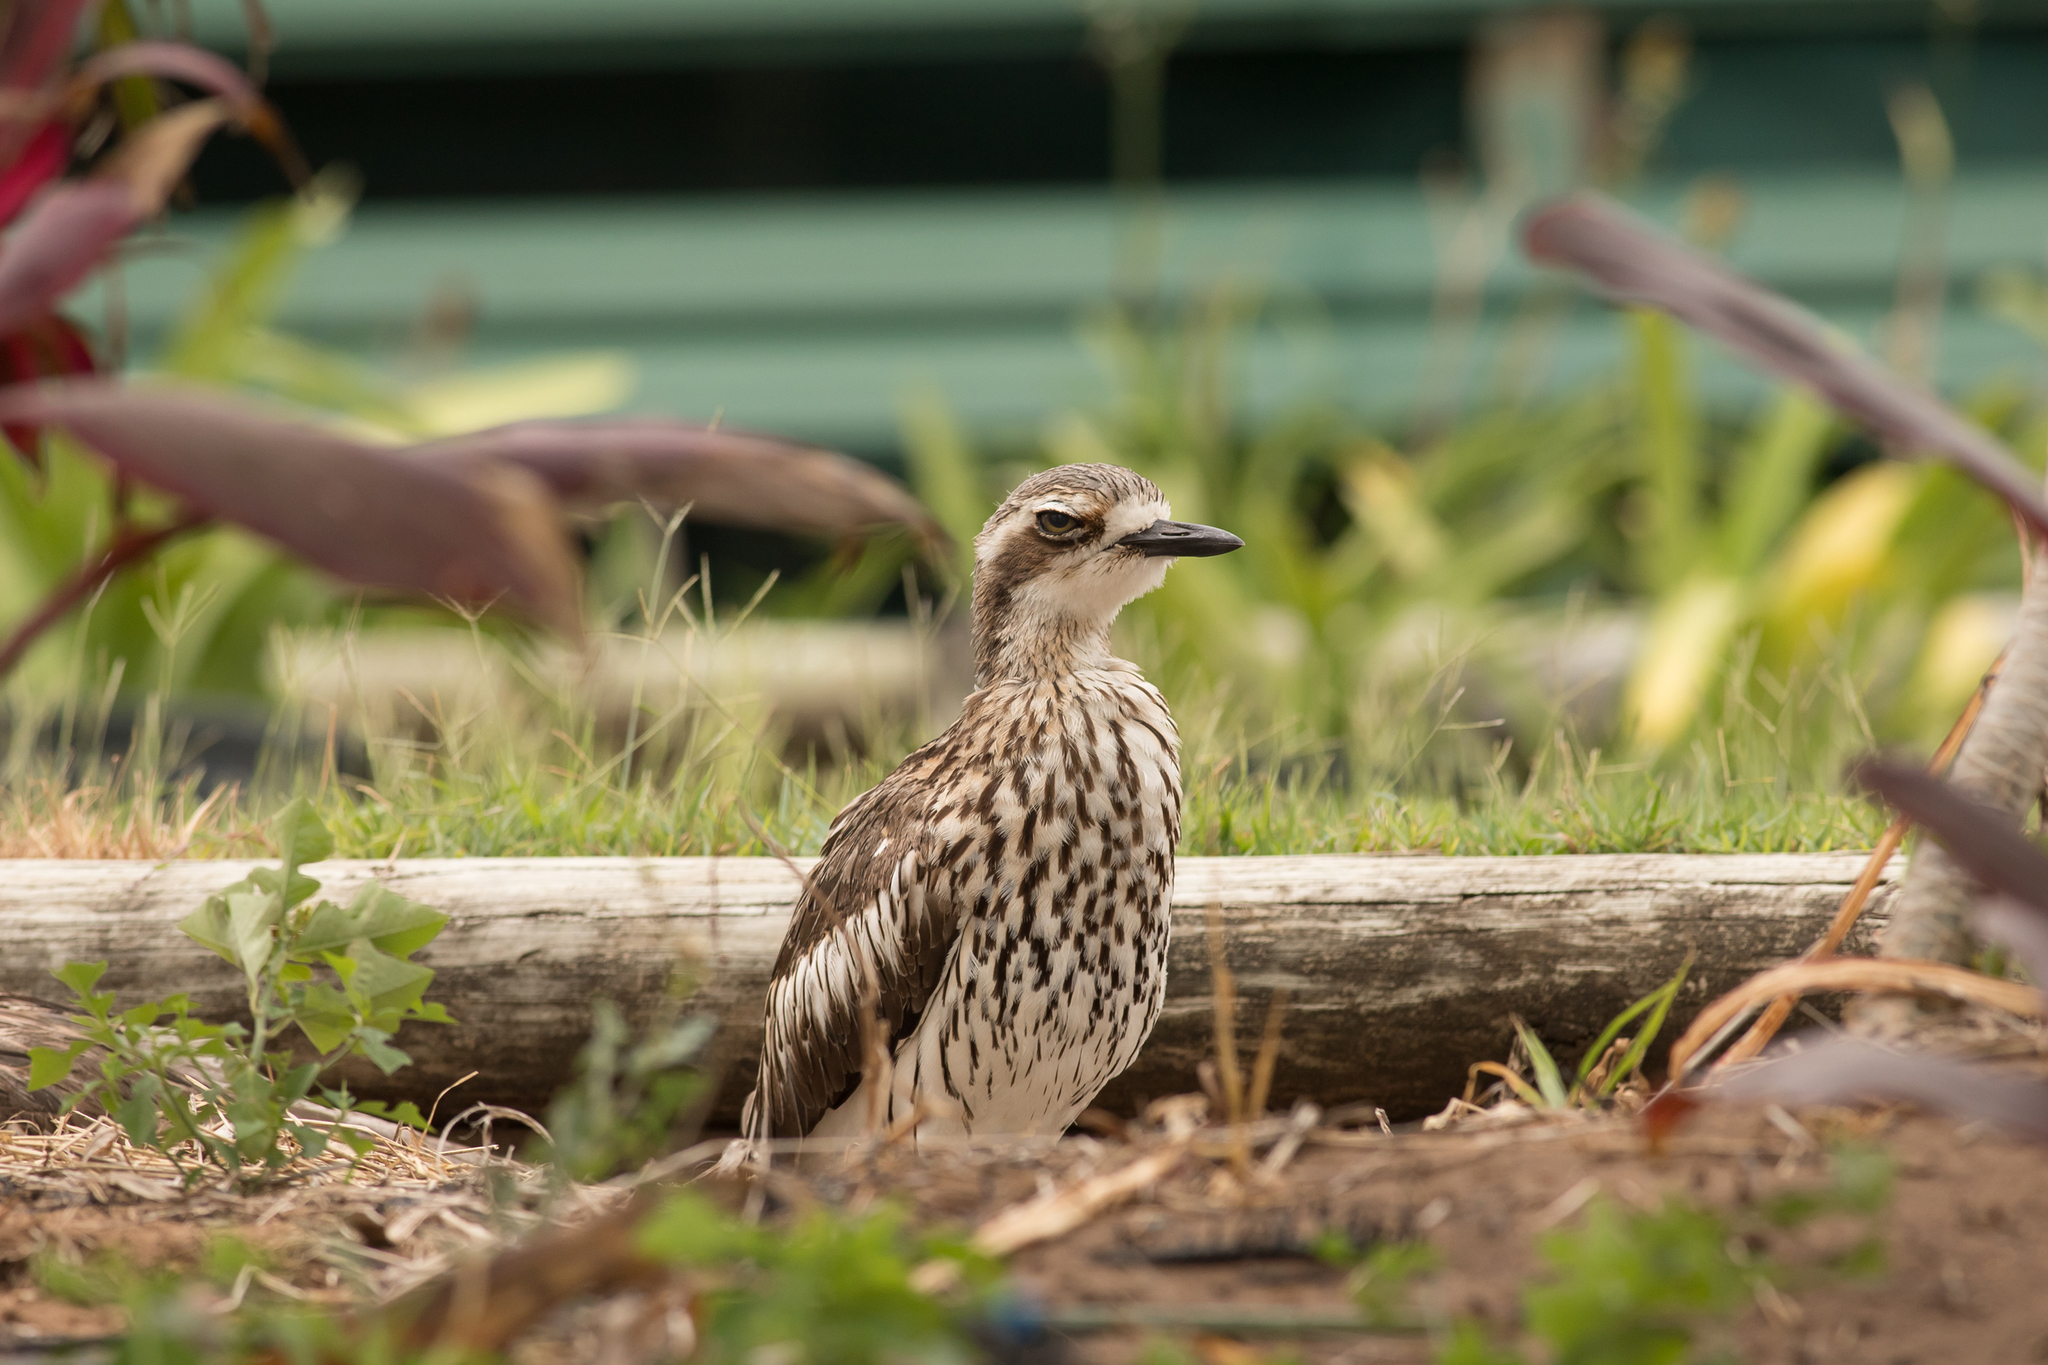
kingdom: Animalia
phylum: Chordata
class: Aves
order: Charadriiformes
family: Burhinidae
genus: Burhinus
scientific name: Burhinus grallarius
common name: Bush stone-curlew
